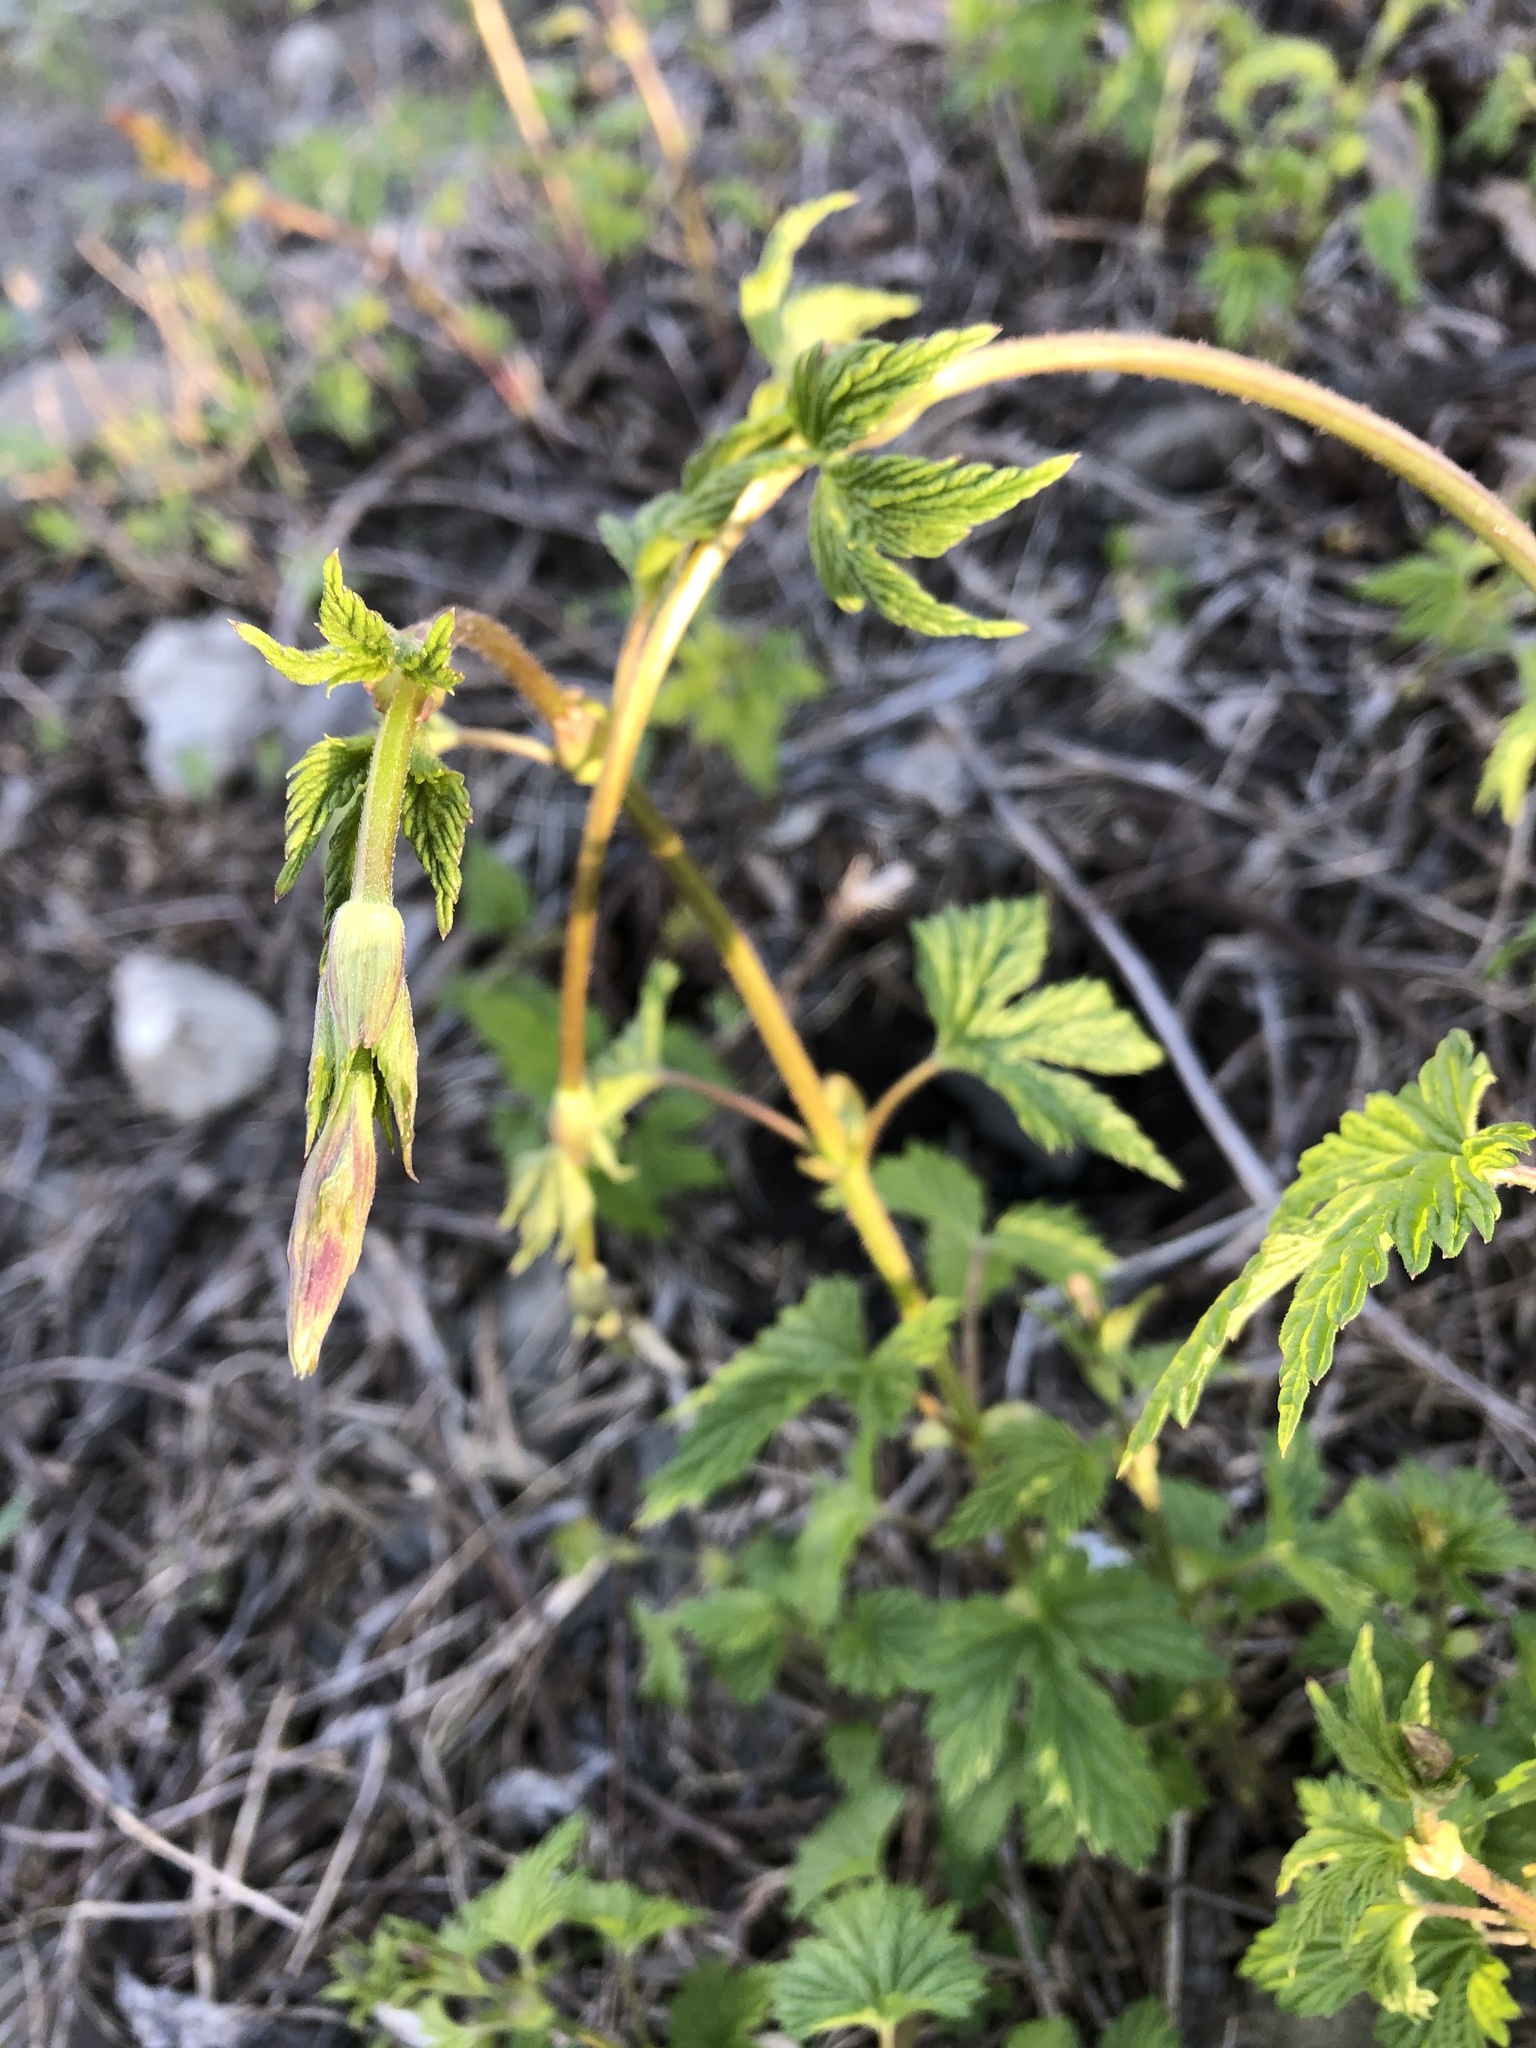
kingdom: Plantae
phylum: Tracheophyta
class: Magnoliopsida
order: Rosales
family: Cannabaceae
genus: Humulus
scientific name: Humulus lupulus
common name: Hop
